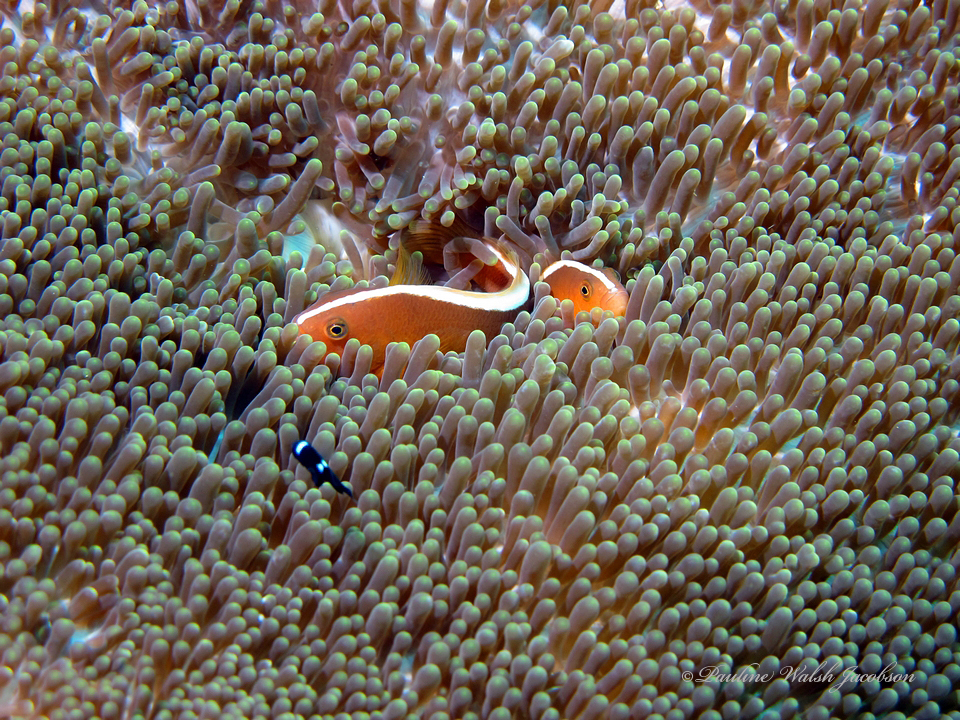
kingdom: Animalia
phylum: Chordata
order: Perciformes
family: Pomacentridae
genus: Amphiprion
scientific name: Amphiprion sandaracinos
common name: Orange anemonefish
